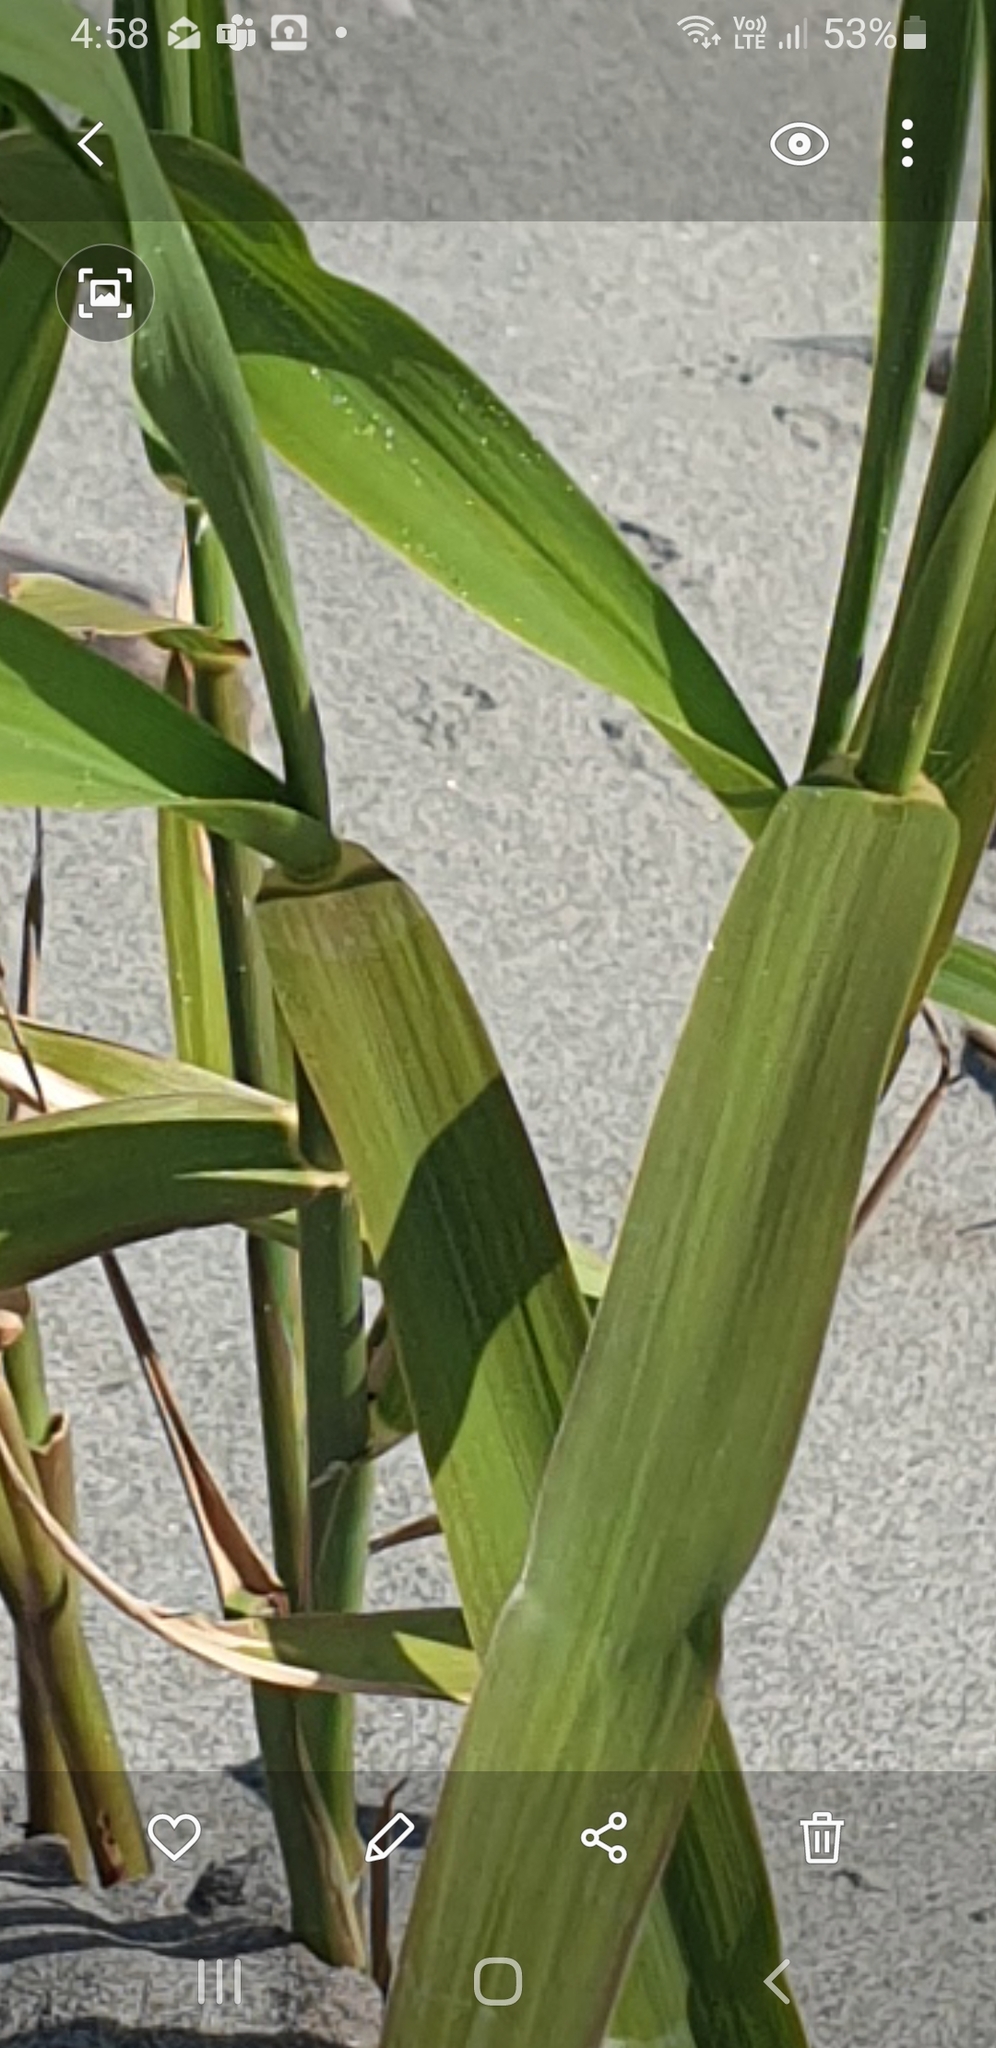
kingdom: Plantae
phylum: Tracheophyta
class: Liliopsida
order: Poales
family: Poaceae
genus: Phragmites
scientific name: Phragmites karka
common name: Tropical reed
